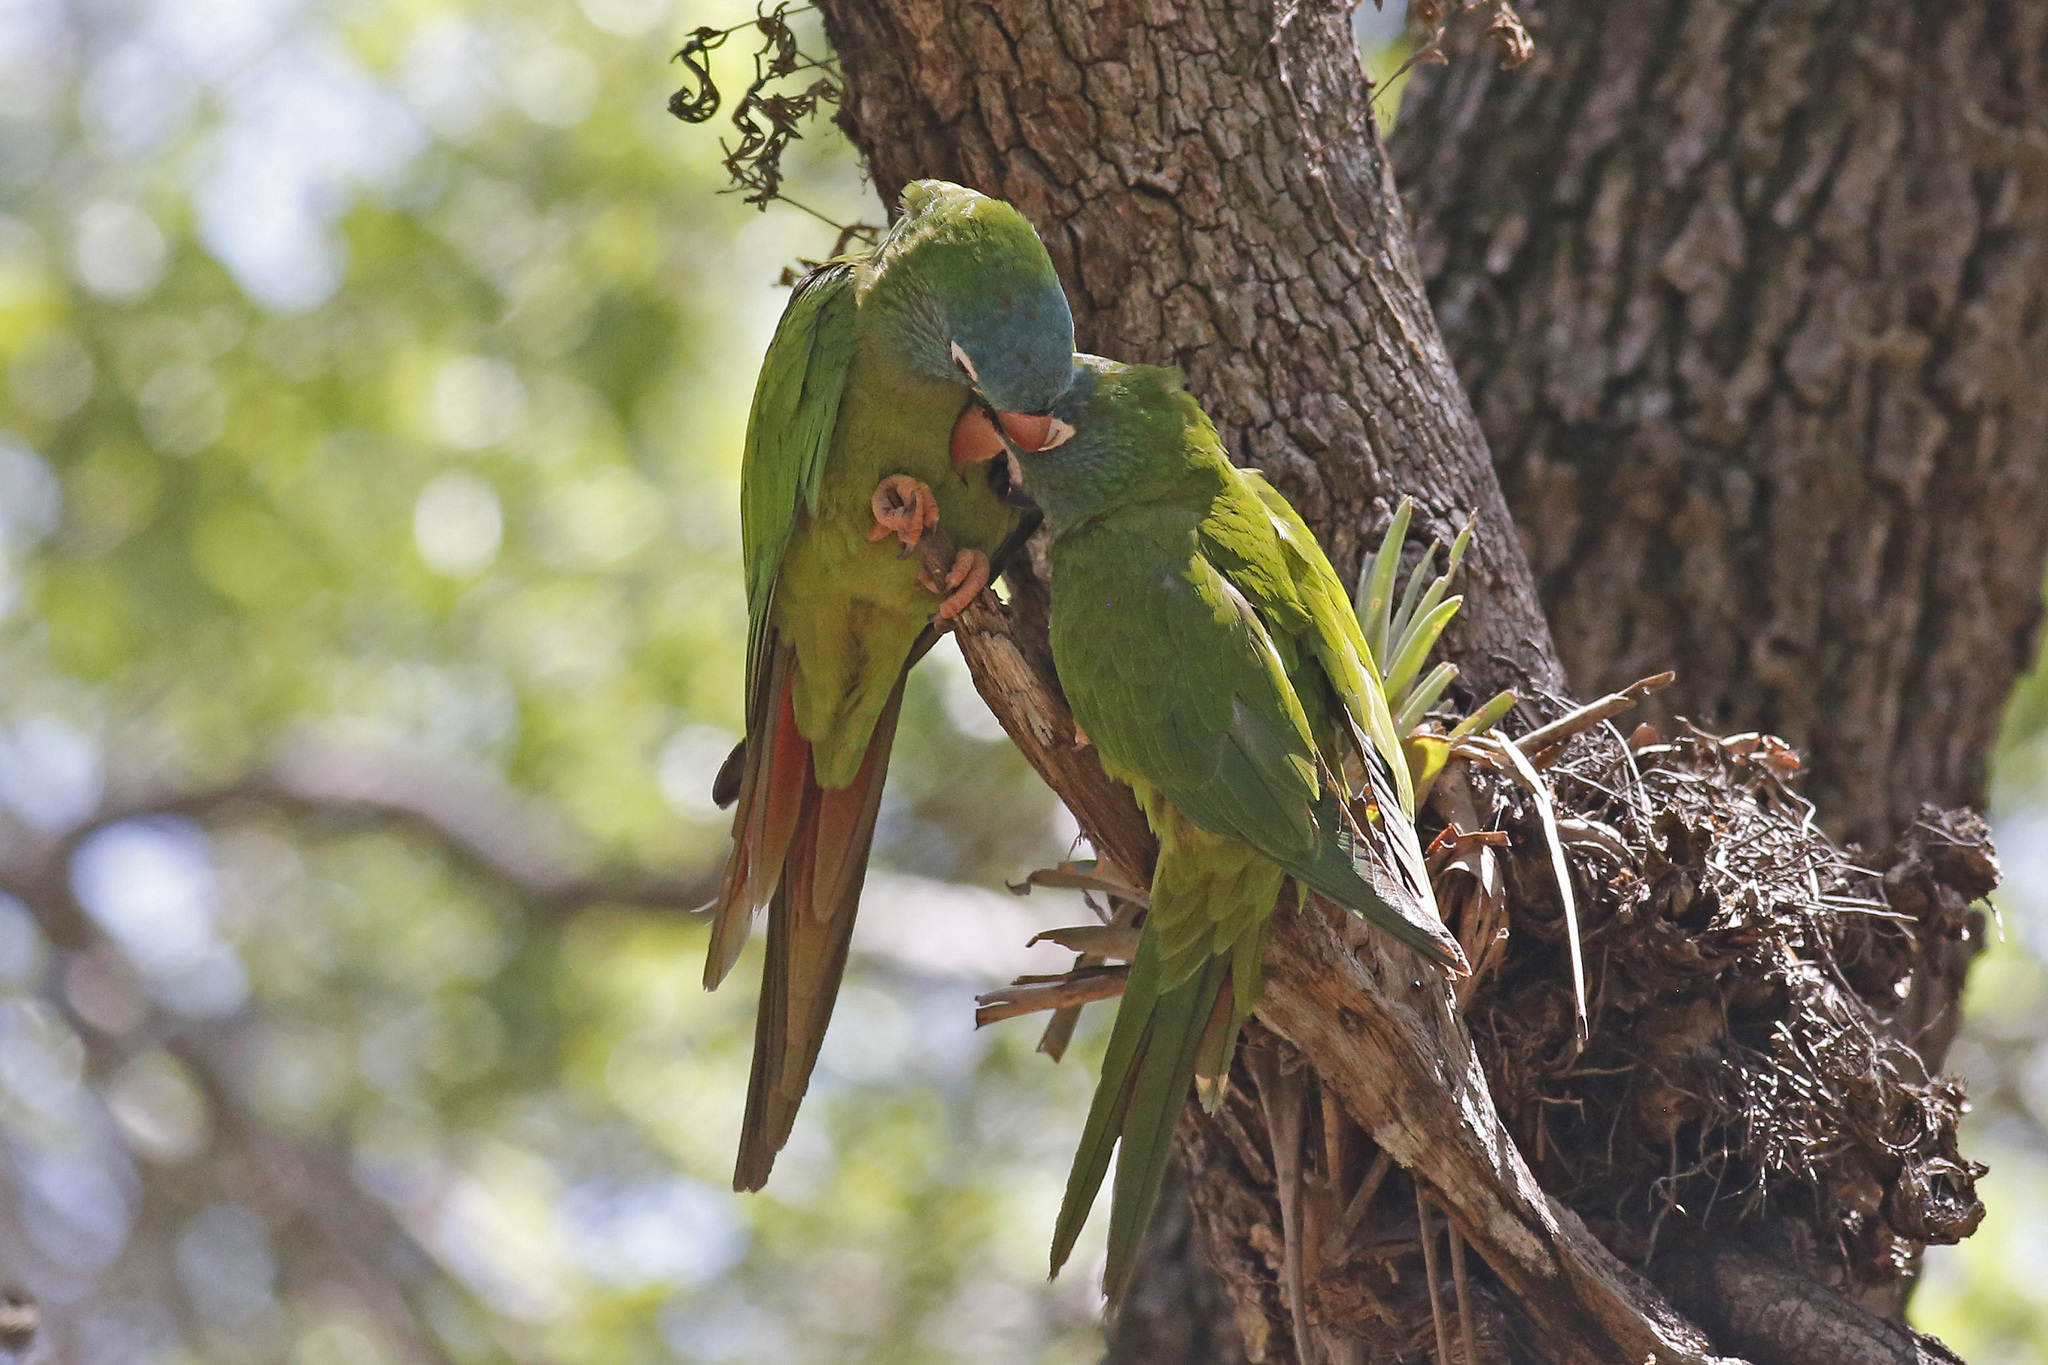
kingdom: Animalia
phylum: Chordata
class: Aves
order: Psittaciformes
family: Psittacidae
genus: Aratinga
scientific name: Aratinga acuticaudata
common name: Blue-crowned parakeet
